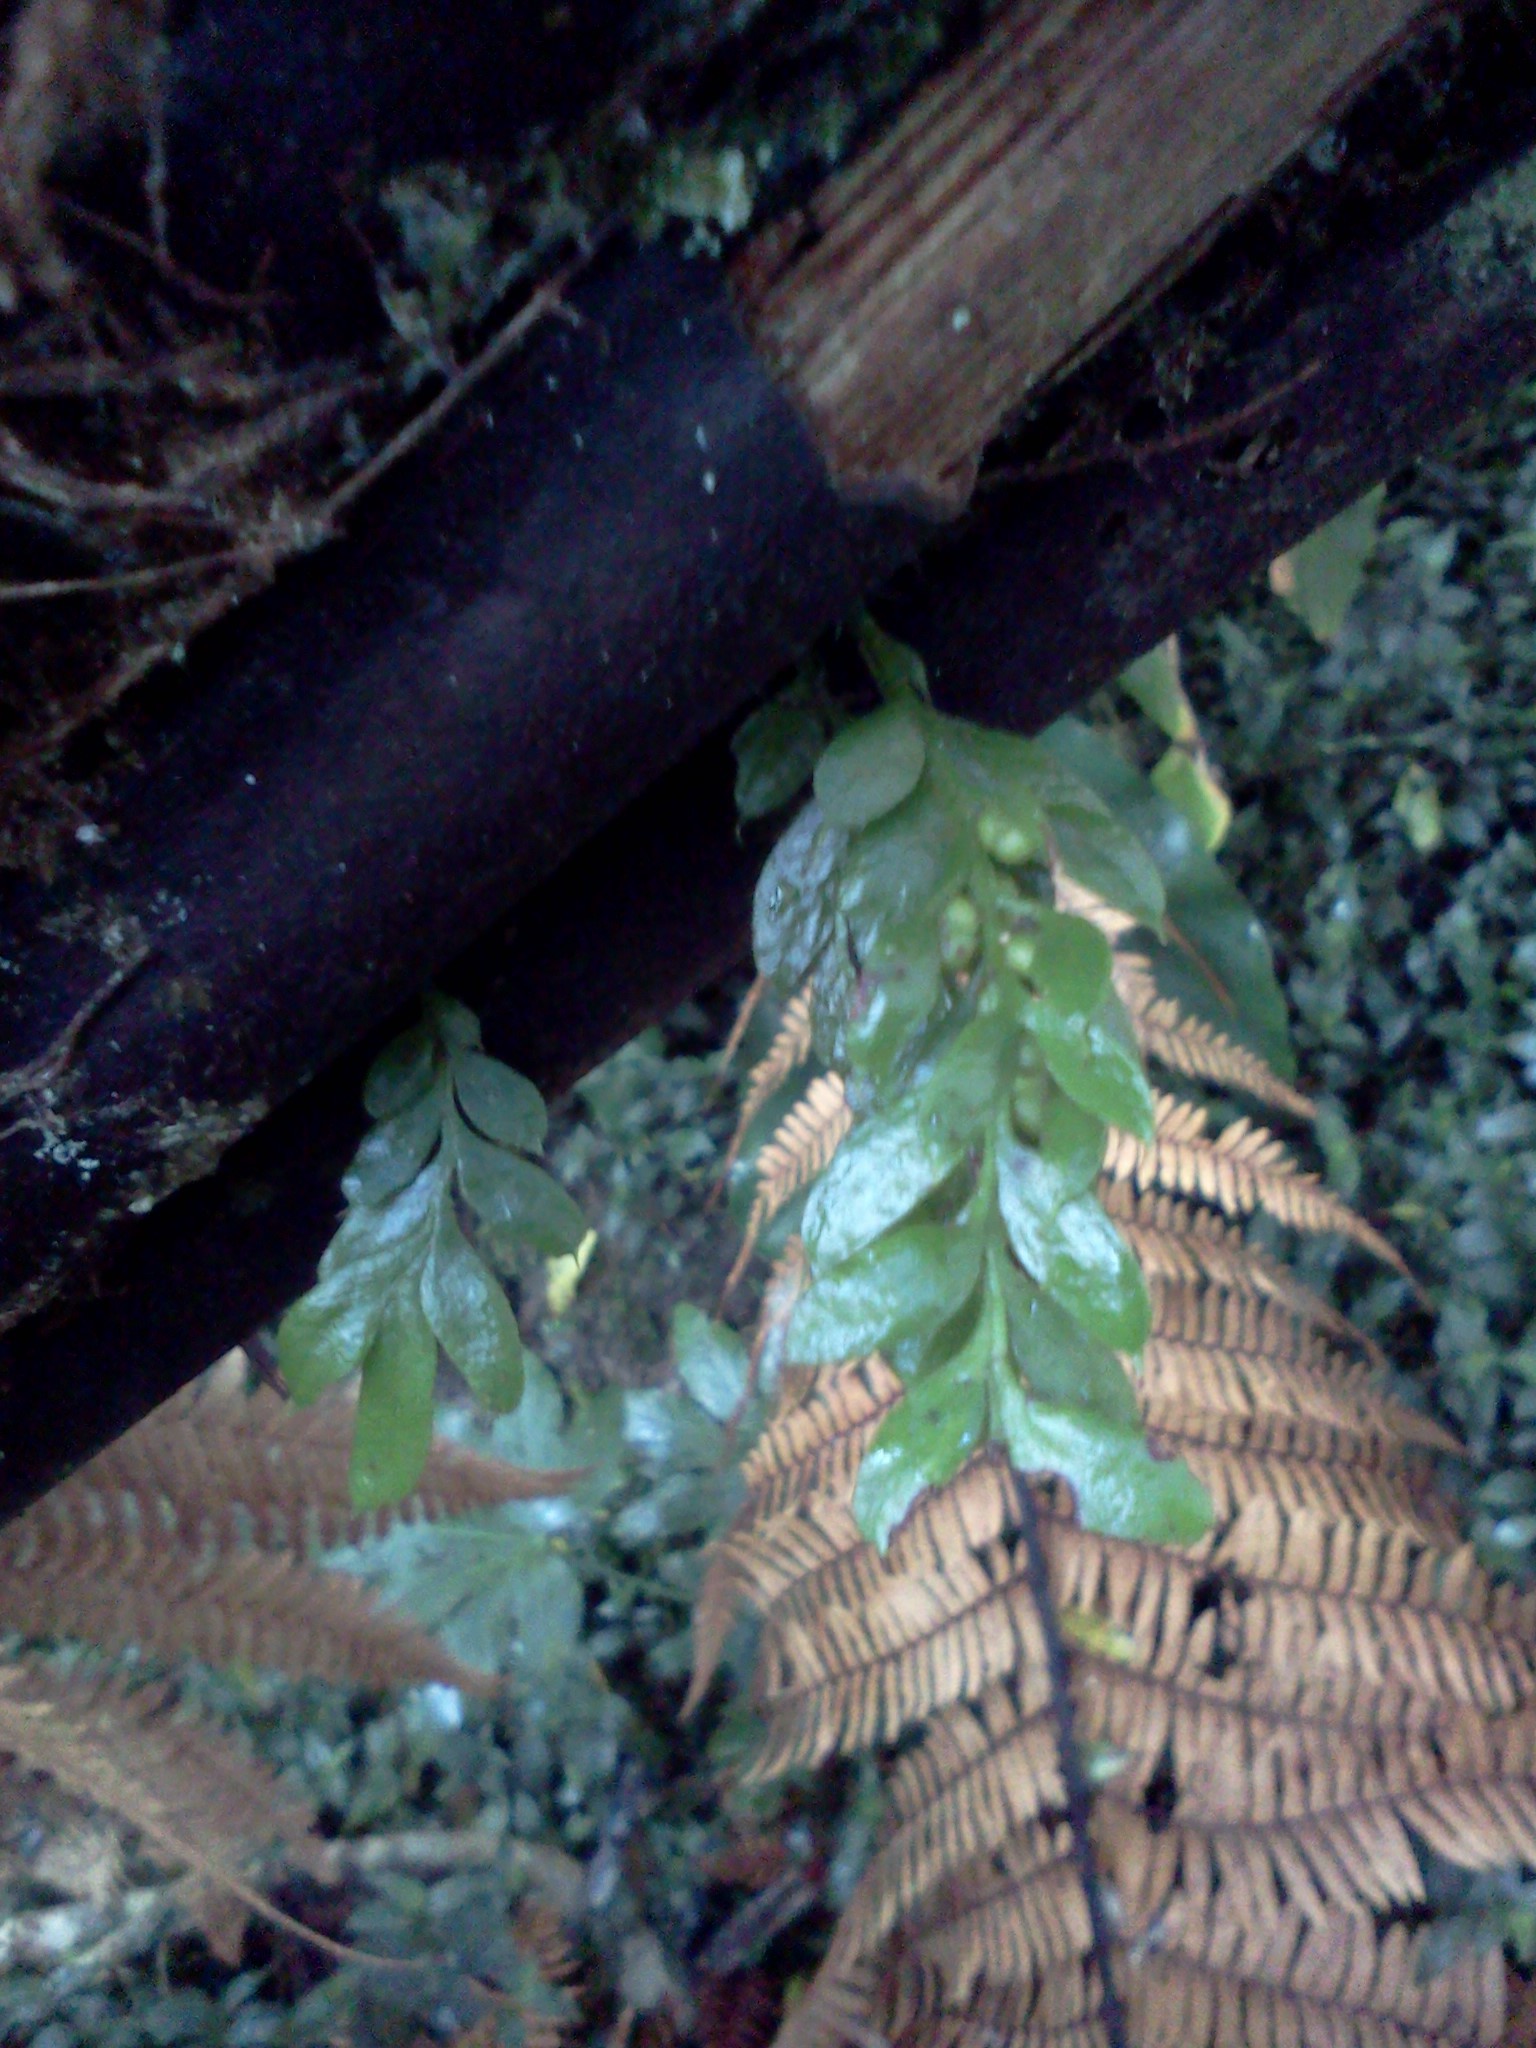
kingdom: Plantae
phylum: Tracheophyta
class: Polypodiopsida
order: Psilotales
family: Psilotaceae
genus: Tmesipteris
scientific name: Tmesipteris lanceolata
